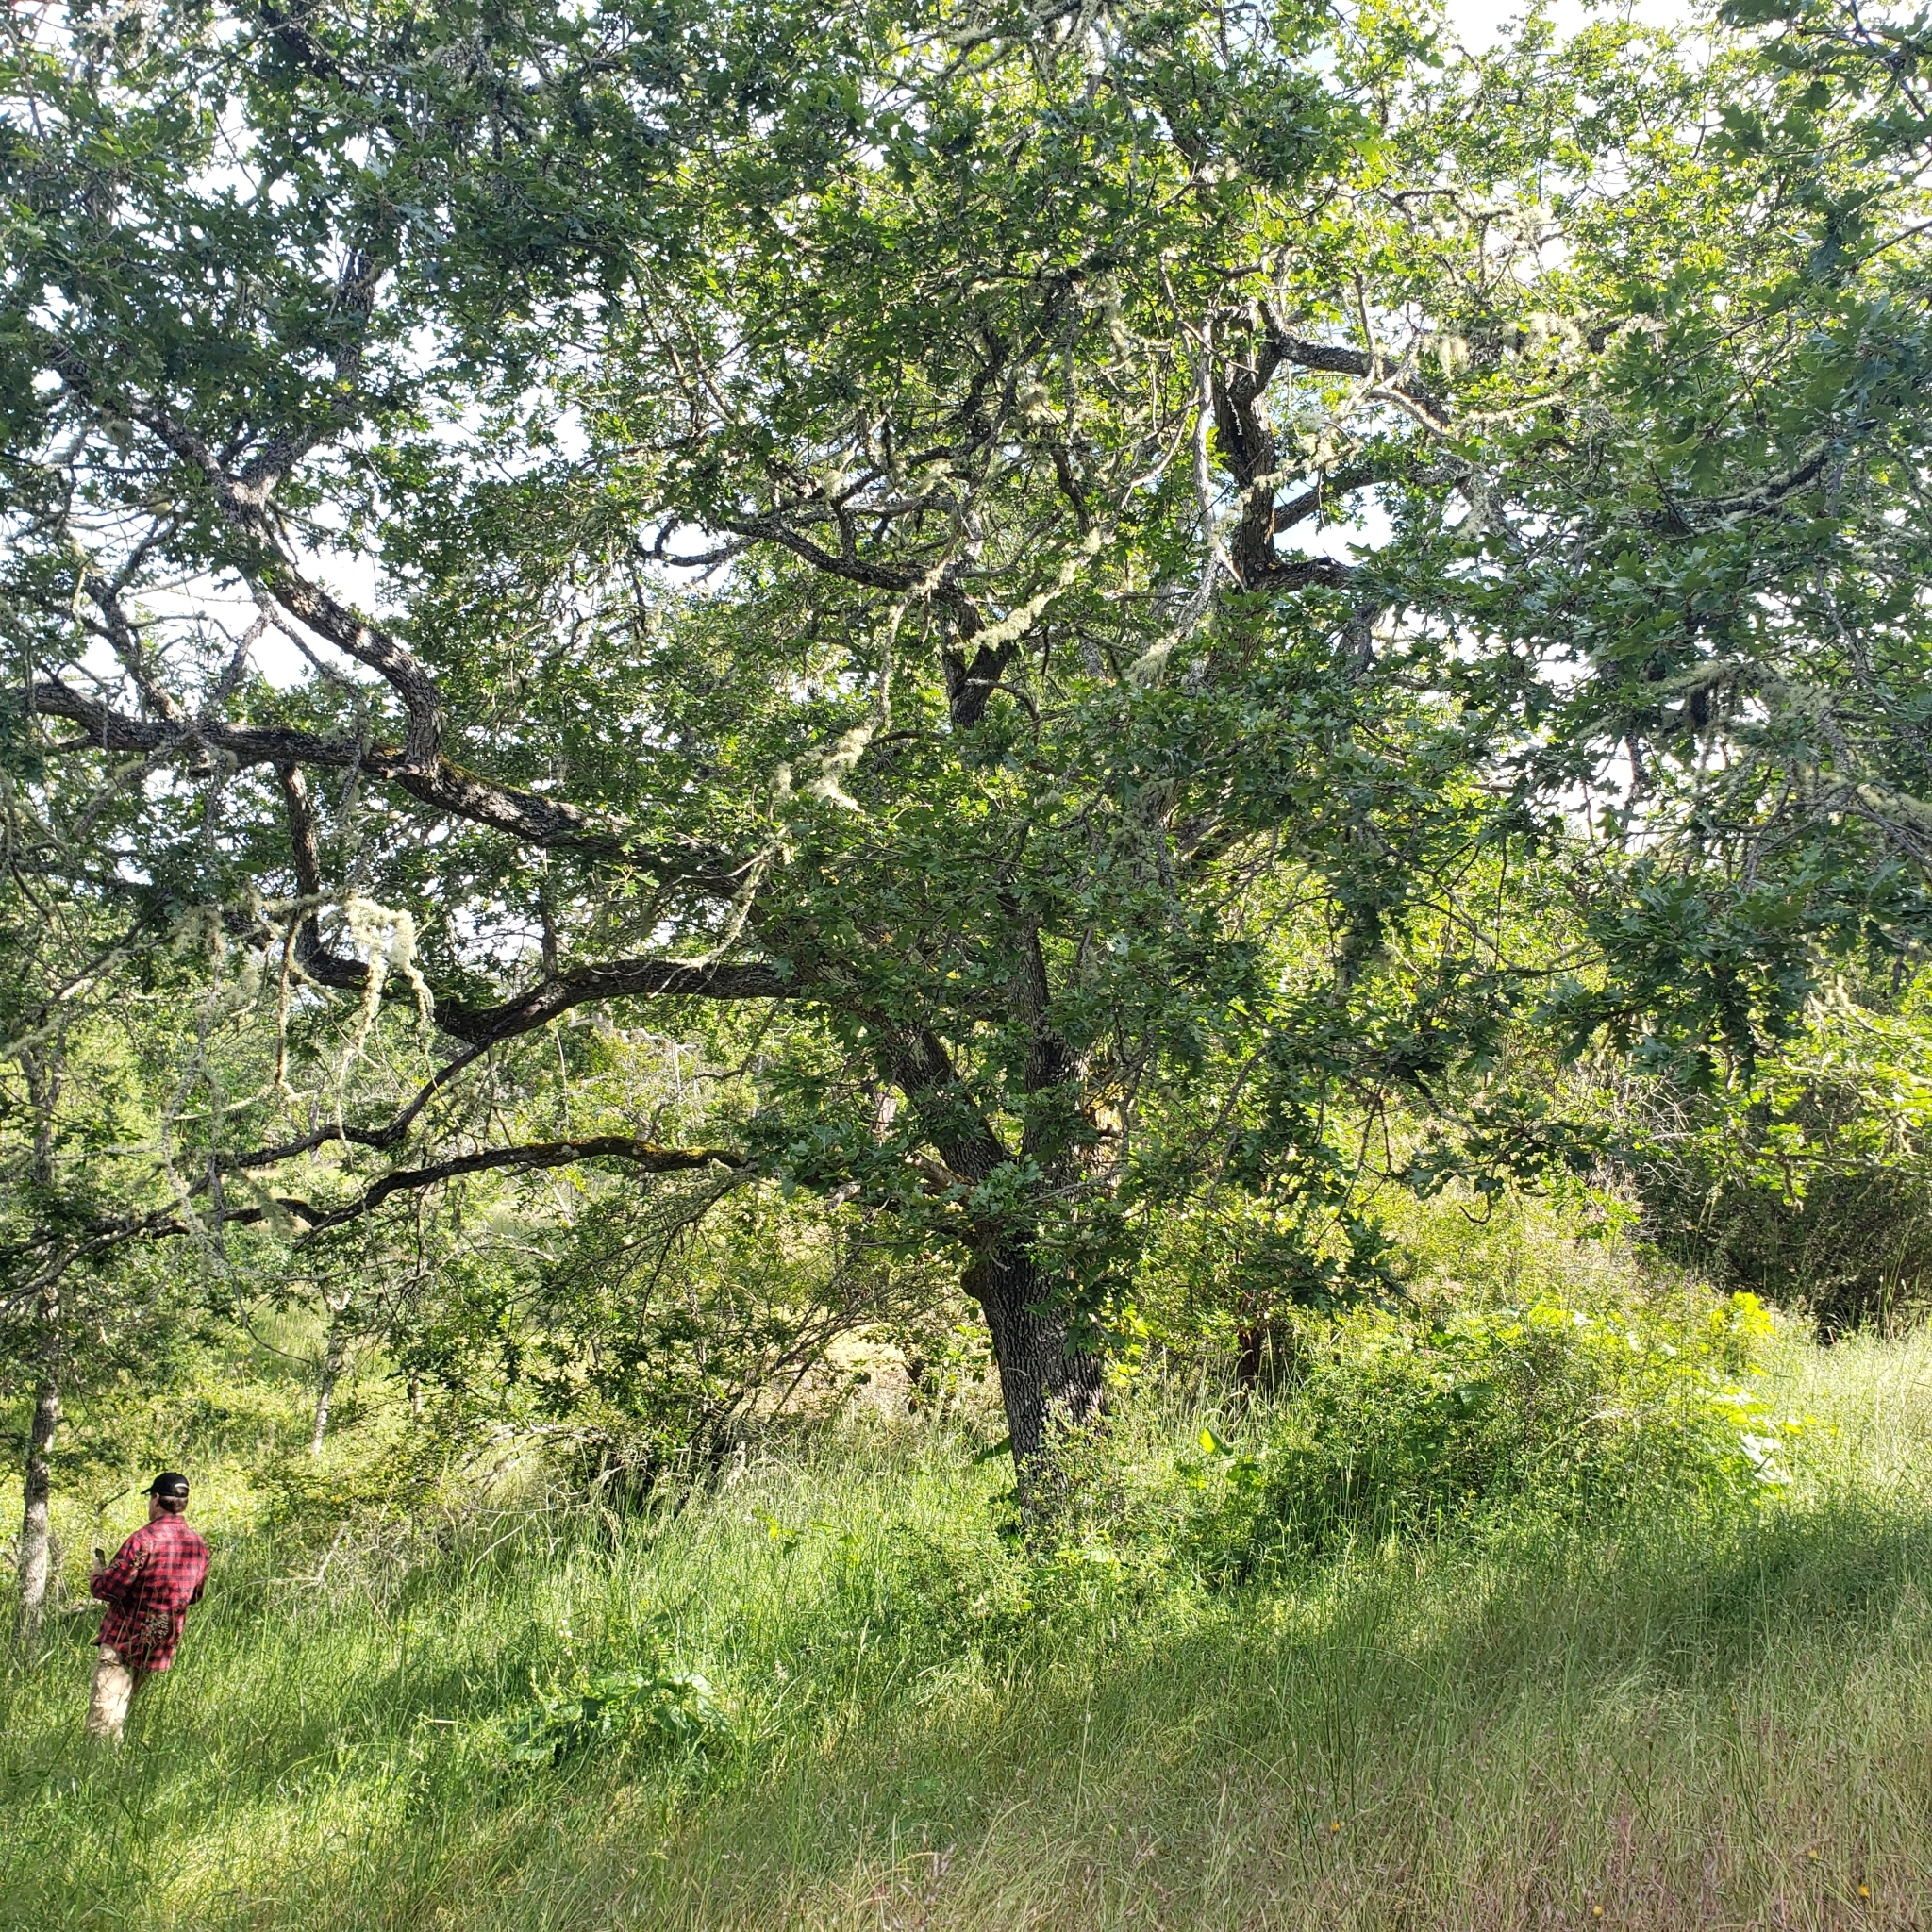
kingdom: Plantae
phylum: Tracheophyta
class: Magnoliopsida
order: Fagales
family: Fagaceae
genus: Quercus
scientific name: Quercus garryana
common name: Garry oak
